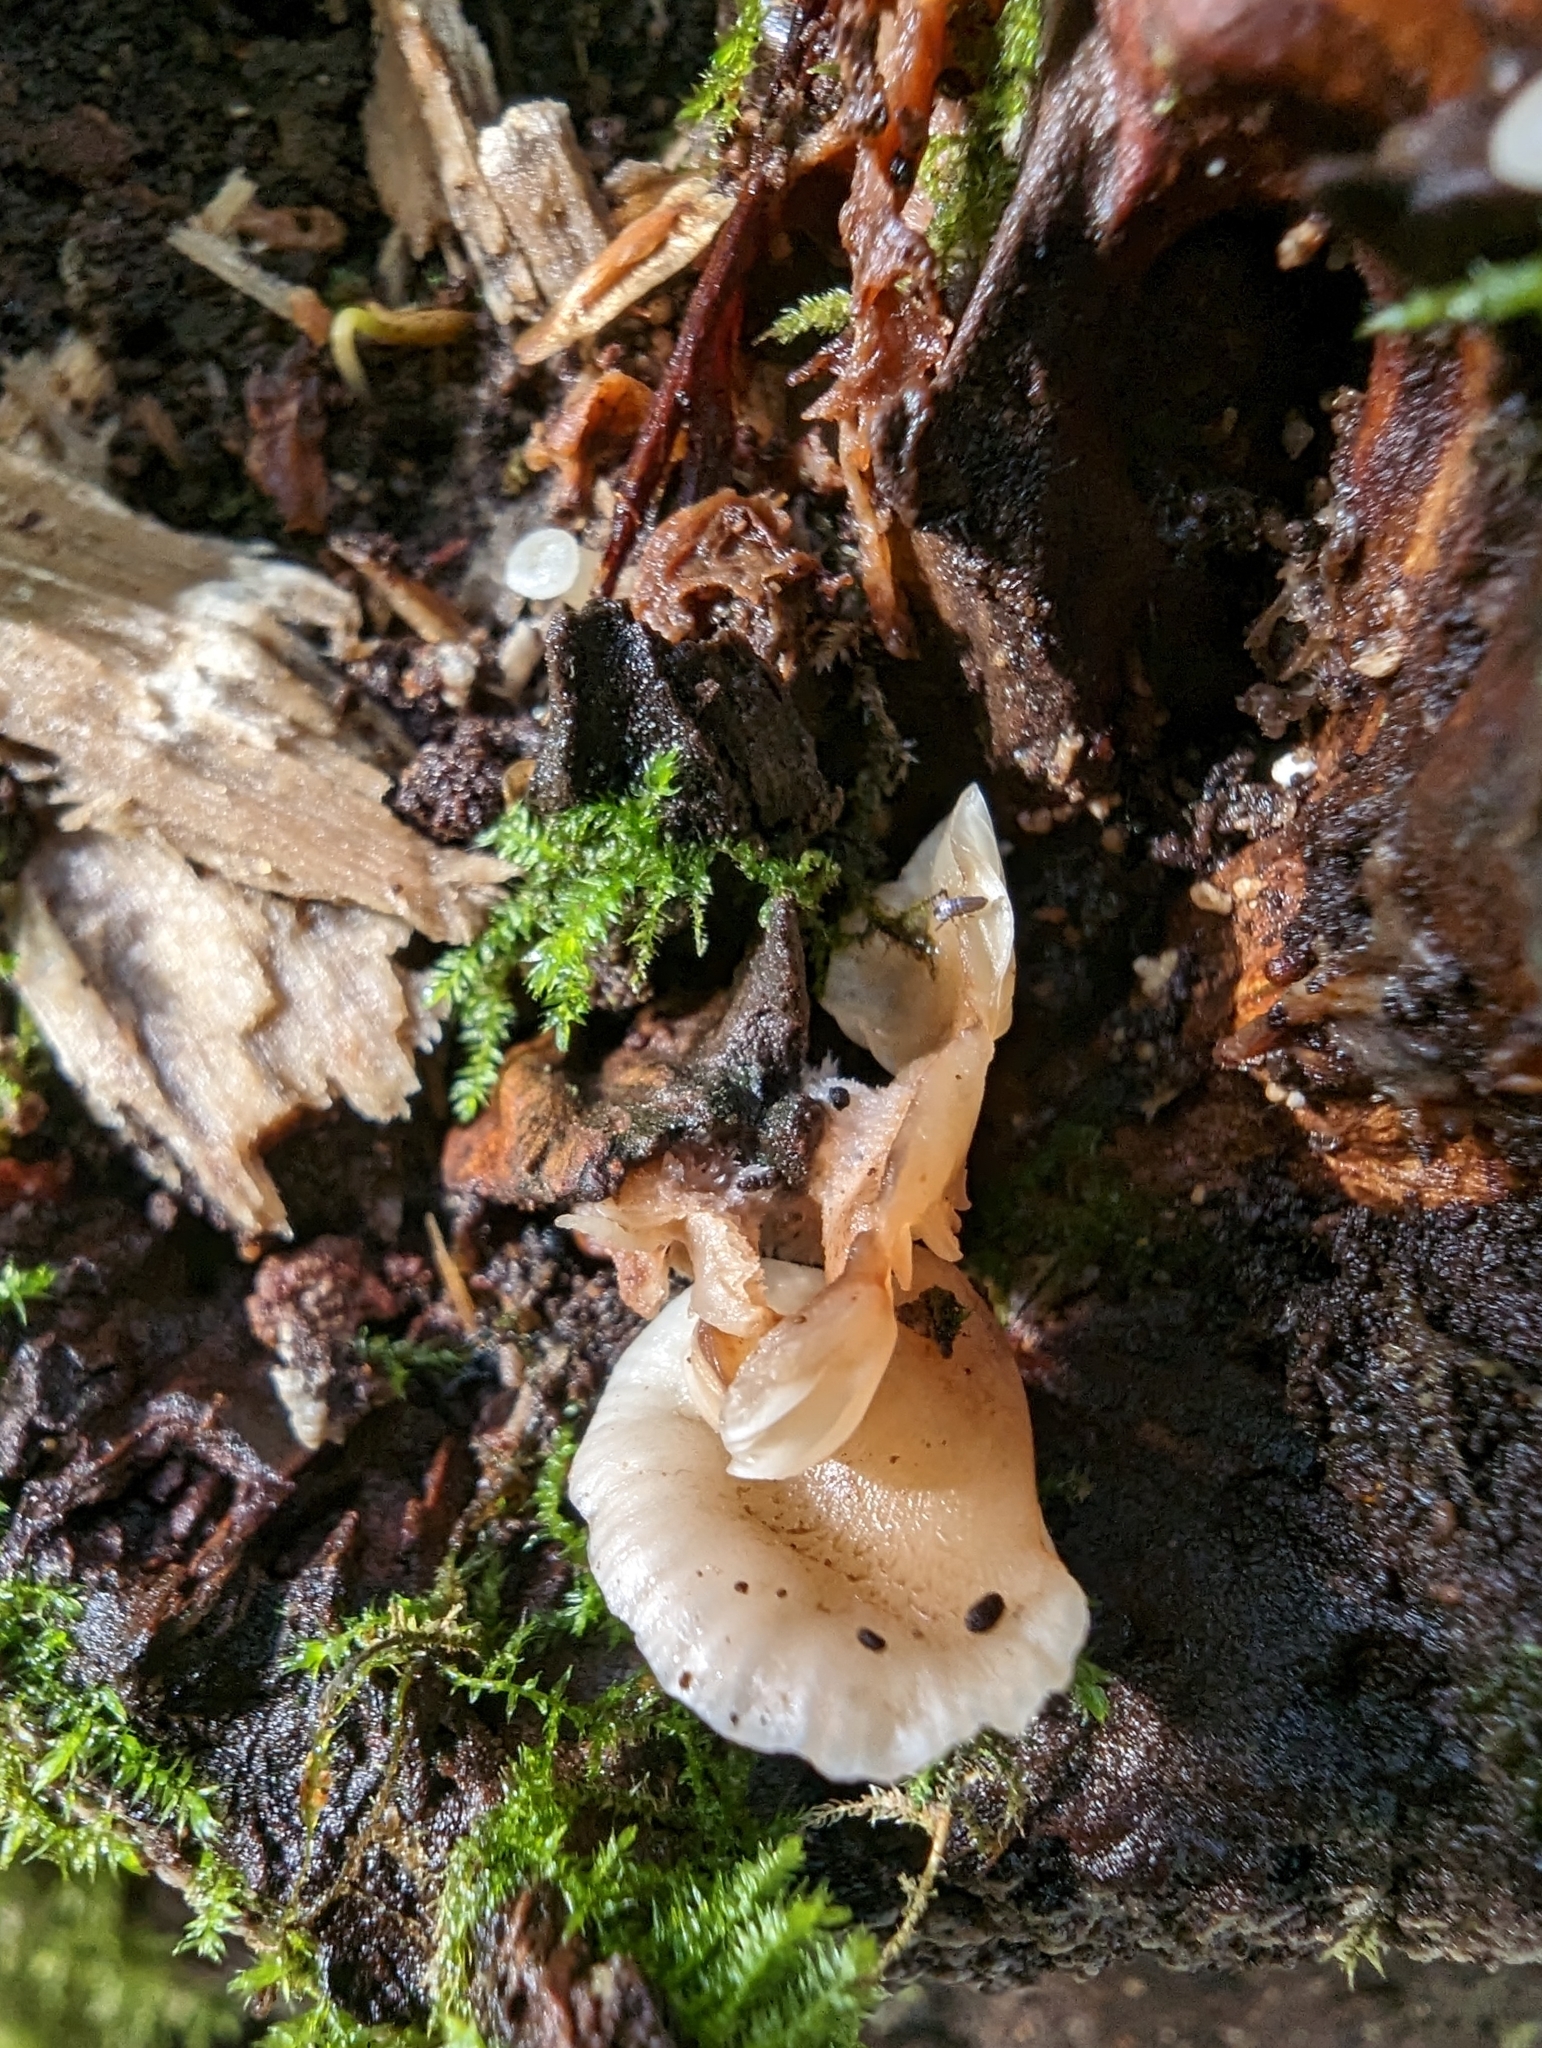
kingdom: Fungi
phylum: Basidiomycota
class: Agaricomycetes
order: Agaricales
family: Mycenaceae
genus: Panellus
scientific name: Panellus longinquus
